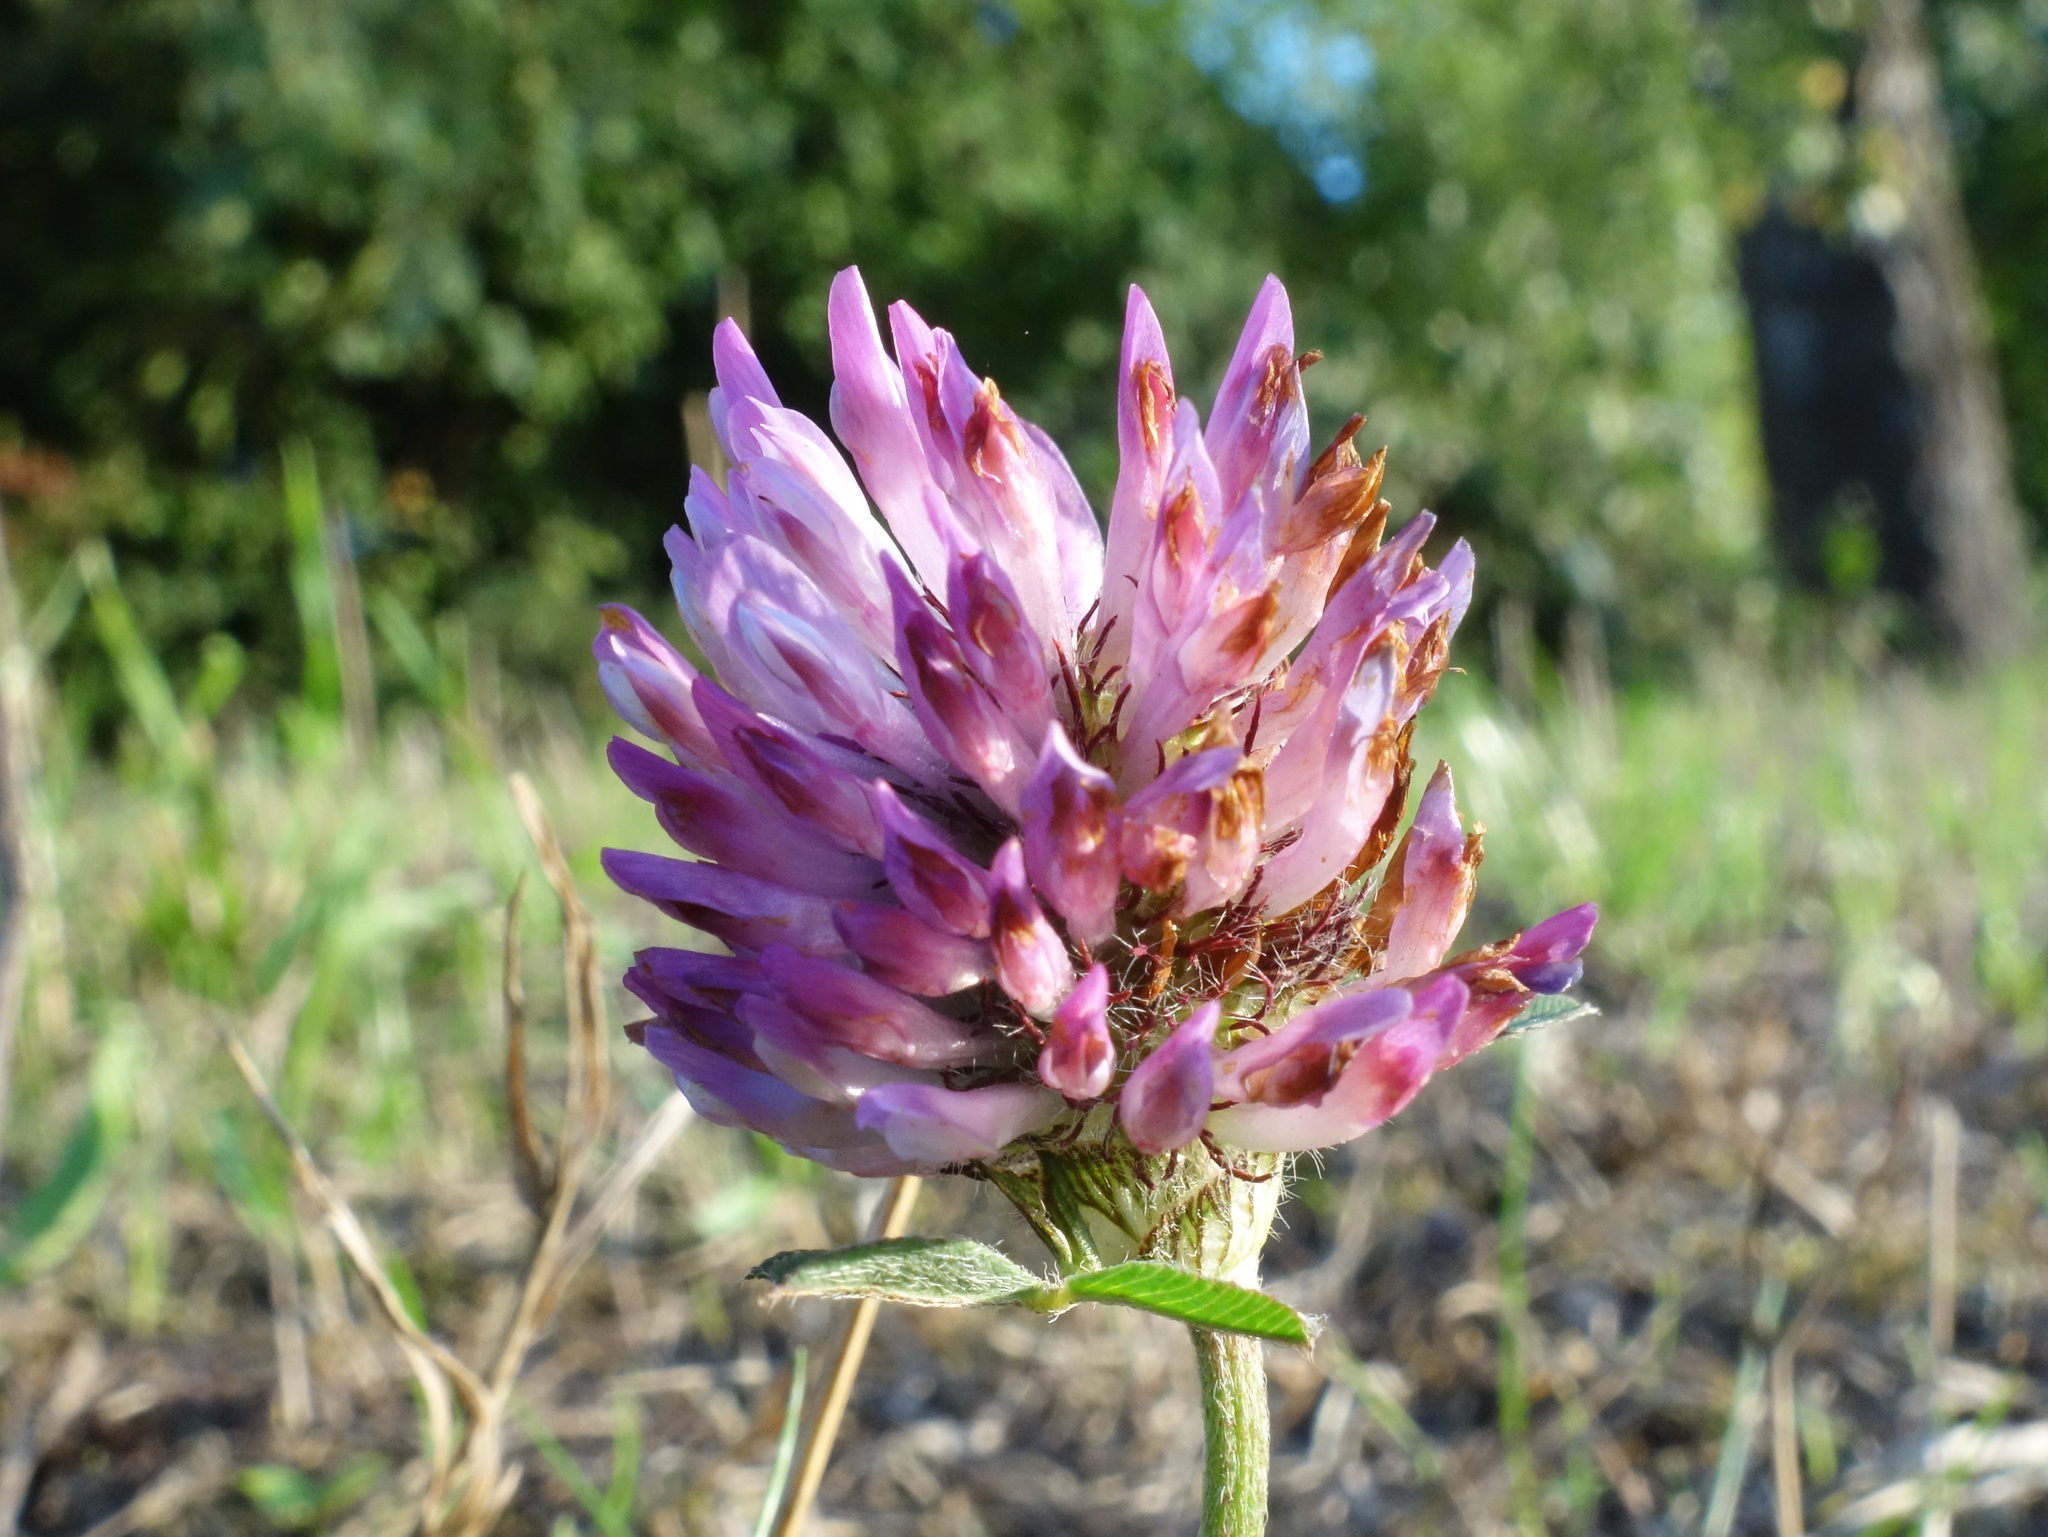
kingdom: Plantae
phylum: Tracheophyta
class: Magnoliopsida
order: Fabales
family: Fabaceae
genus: Trifolium
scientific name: Trifolium pratense
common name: Red clover
